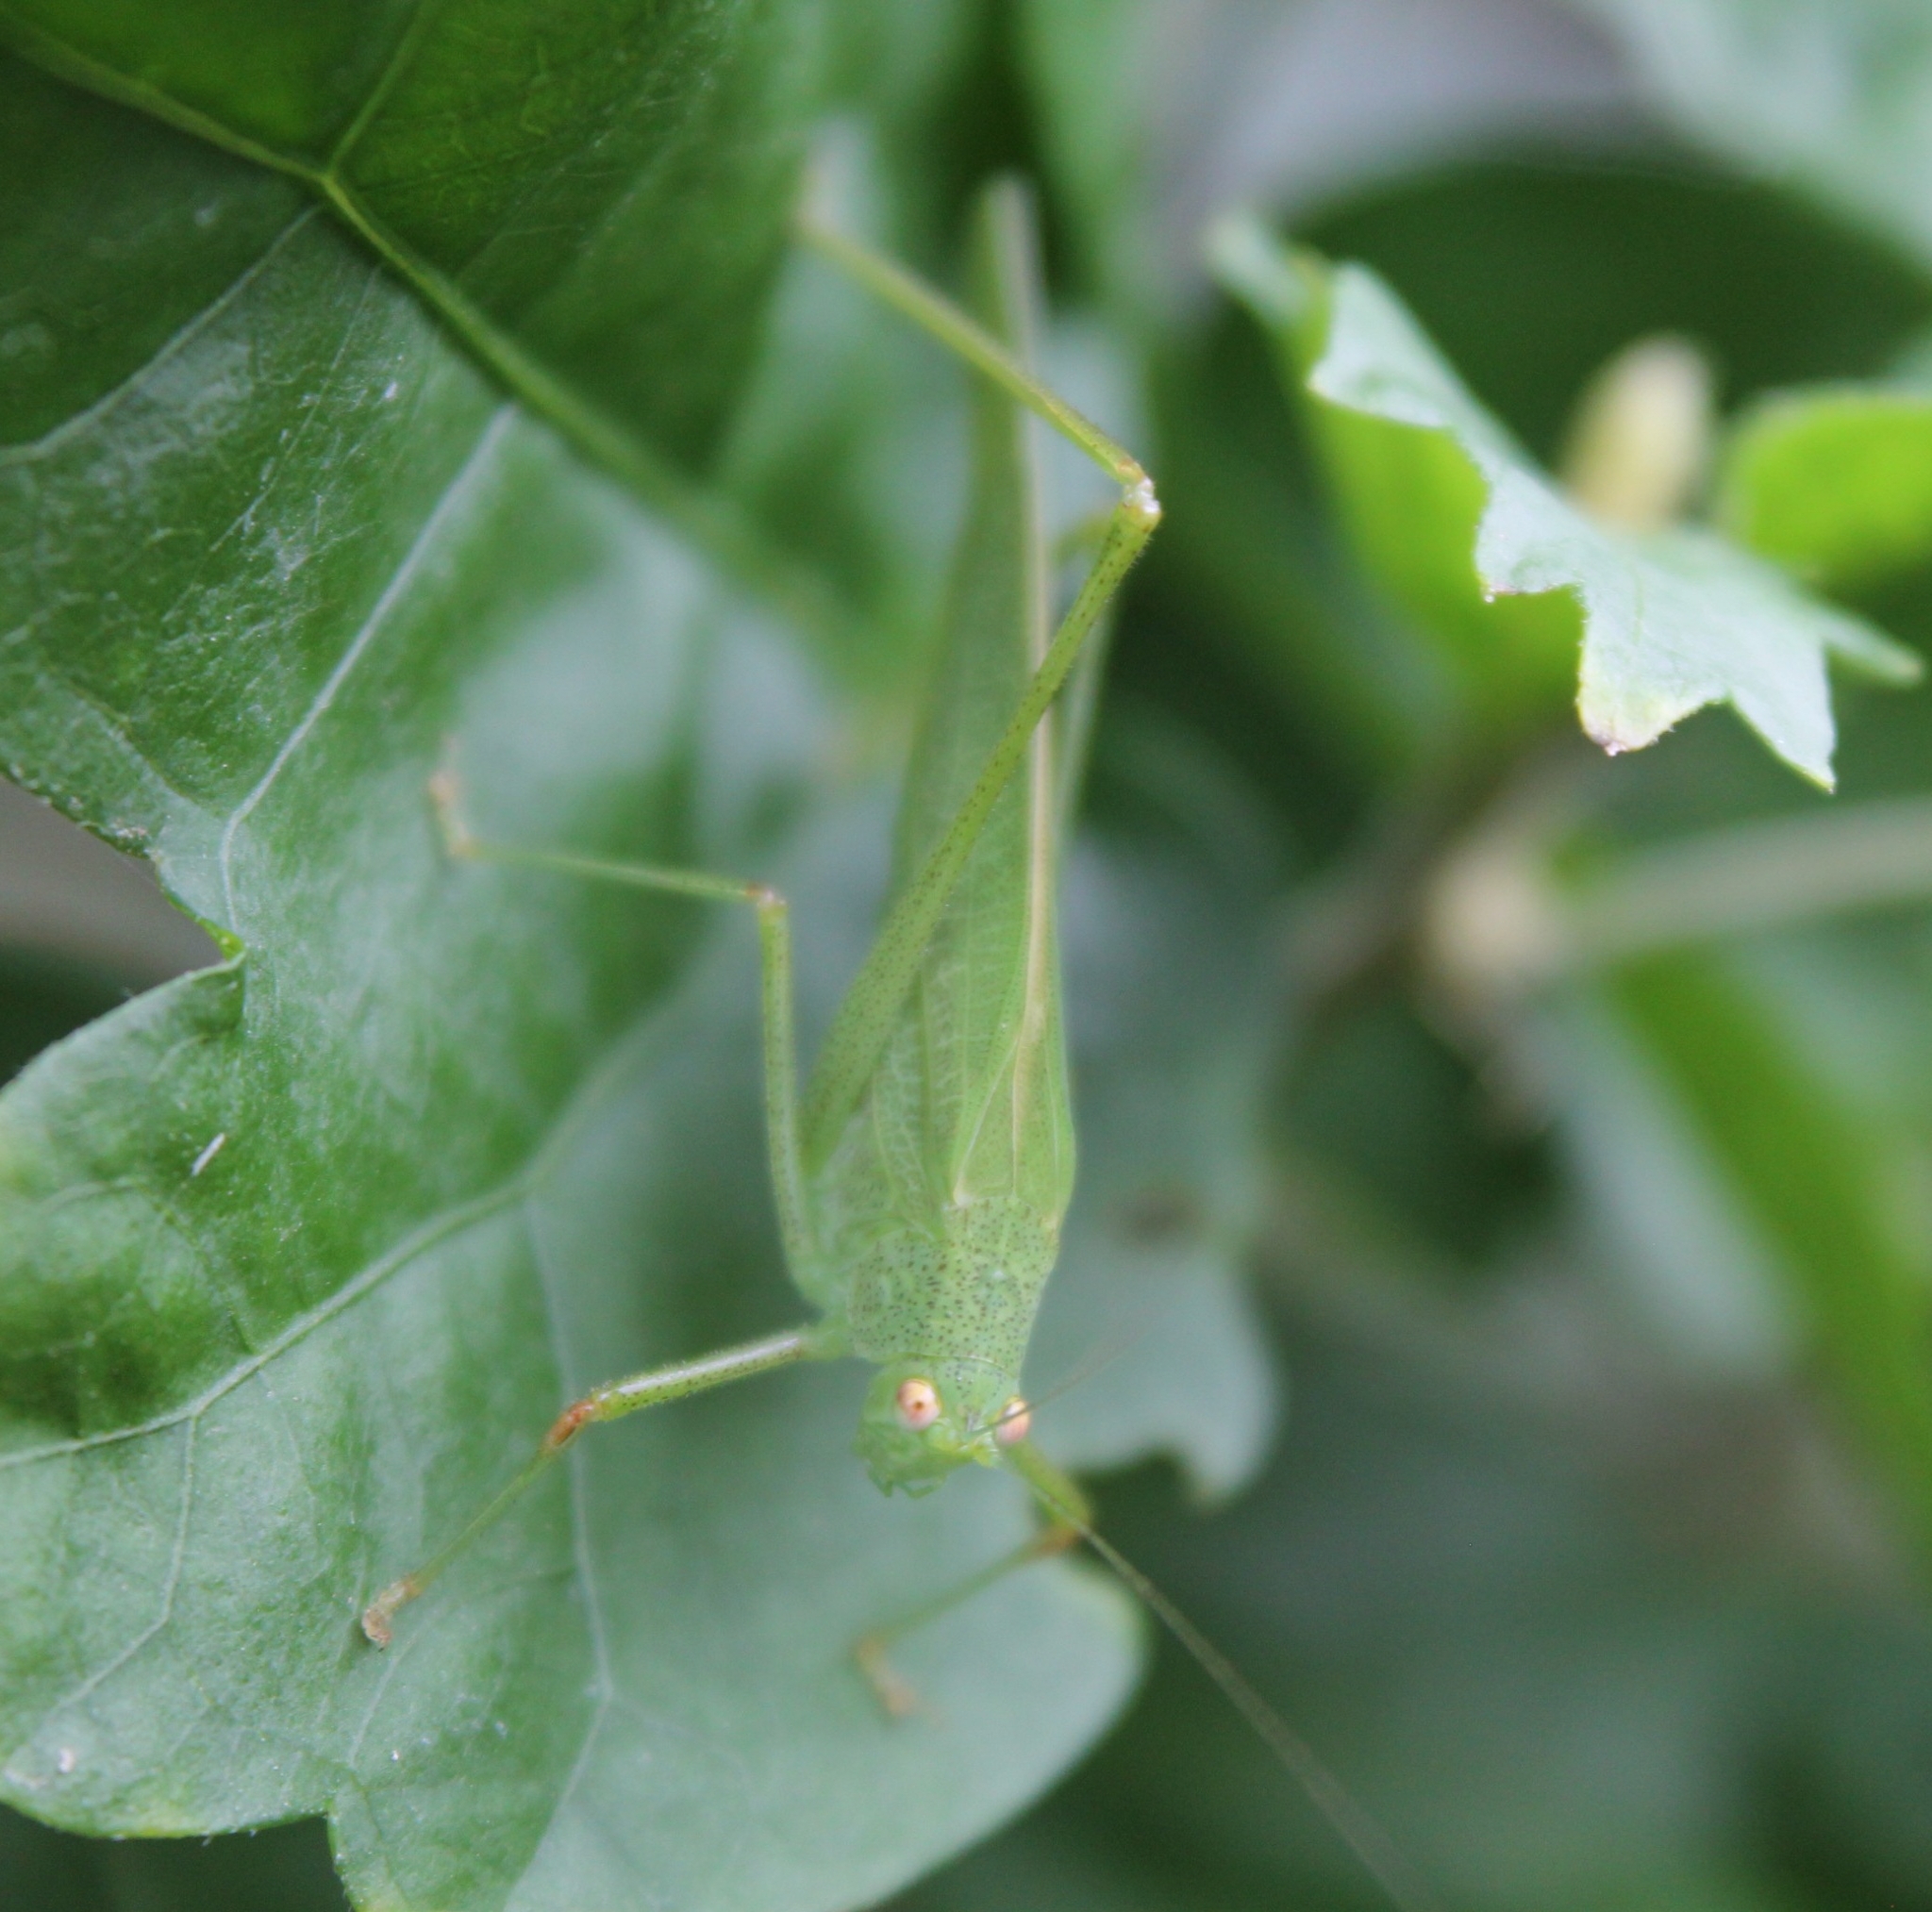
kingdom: Animalia
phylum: Arthropoda
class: Insecta
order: Orthoptera
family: Tettigoniidae
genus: Phaneroptera
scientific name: Phaneroptera nana
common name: Southern sickle bush-cricket
